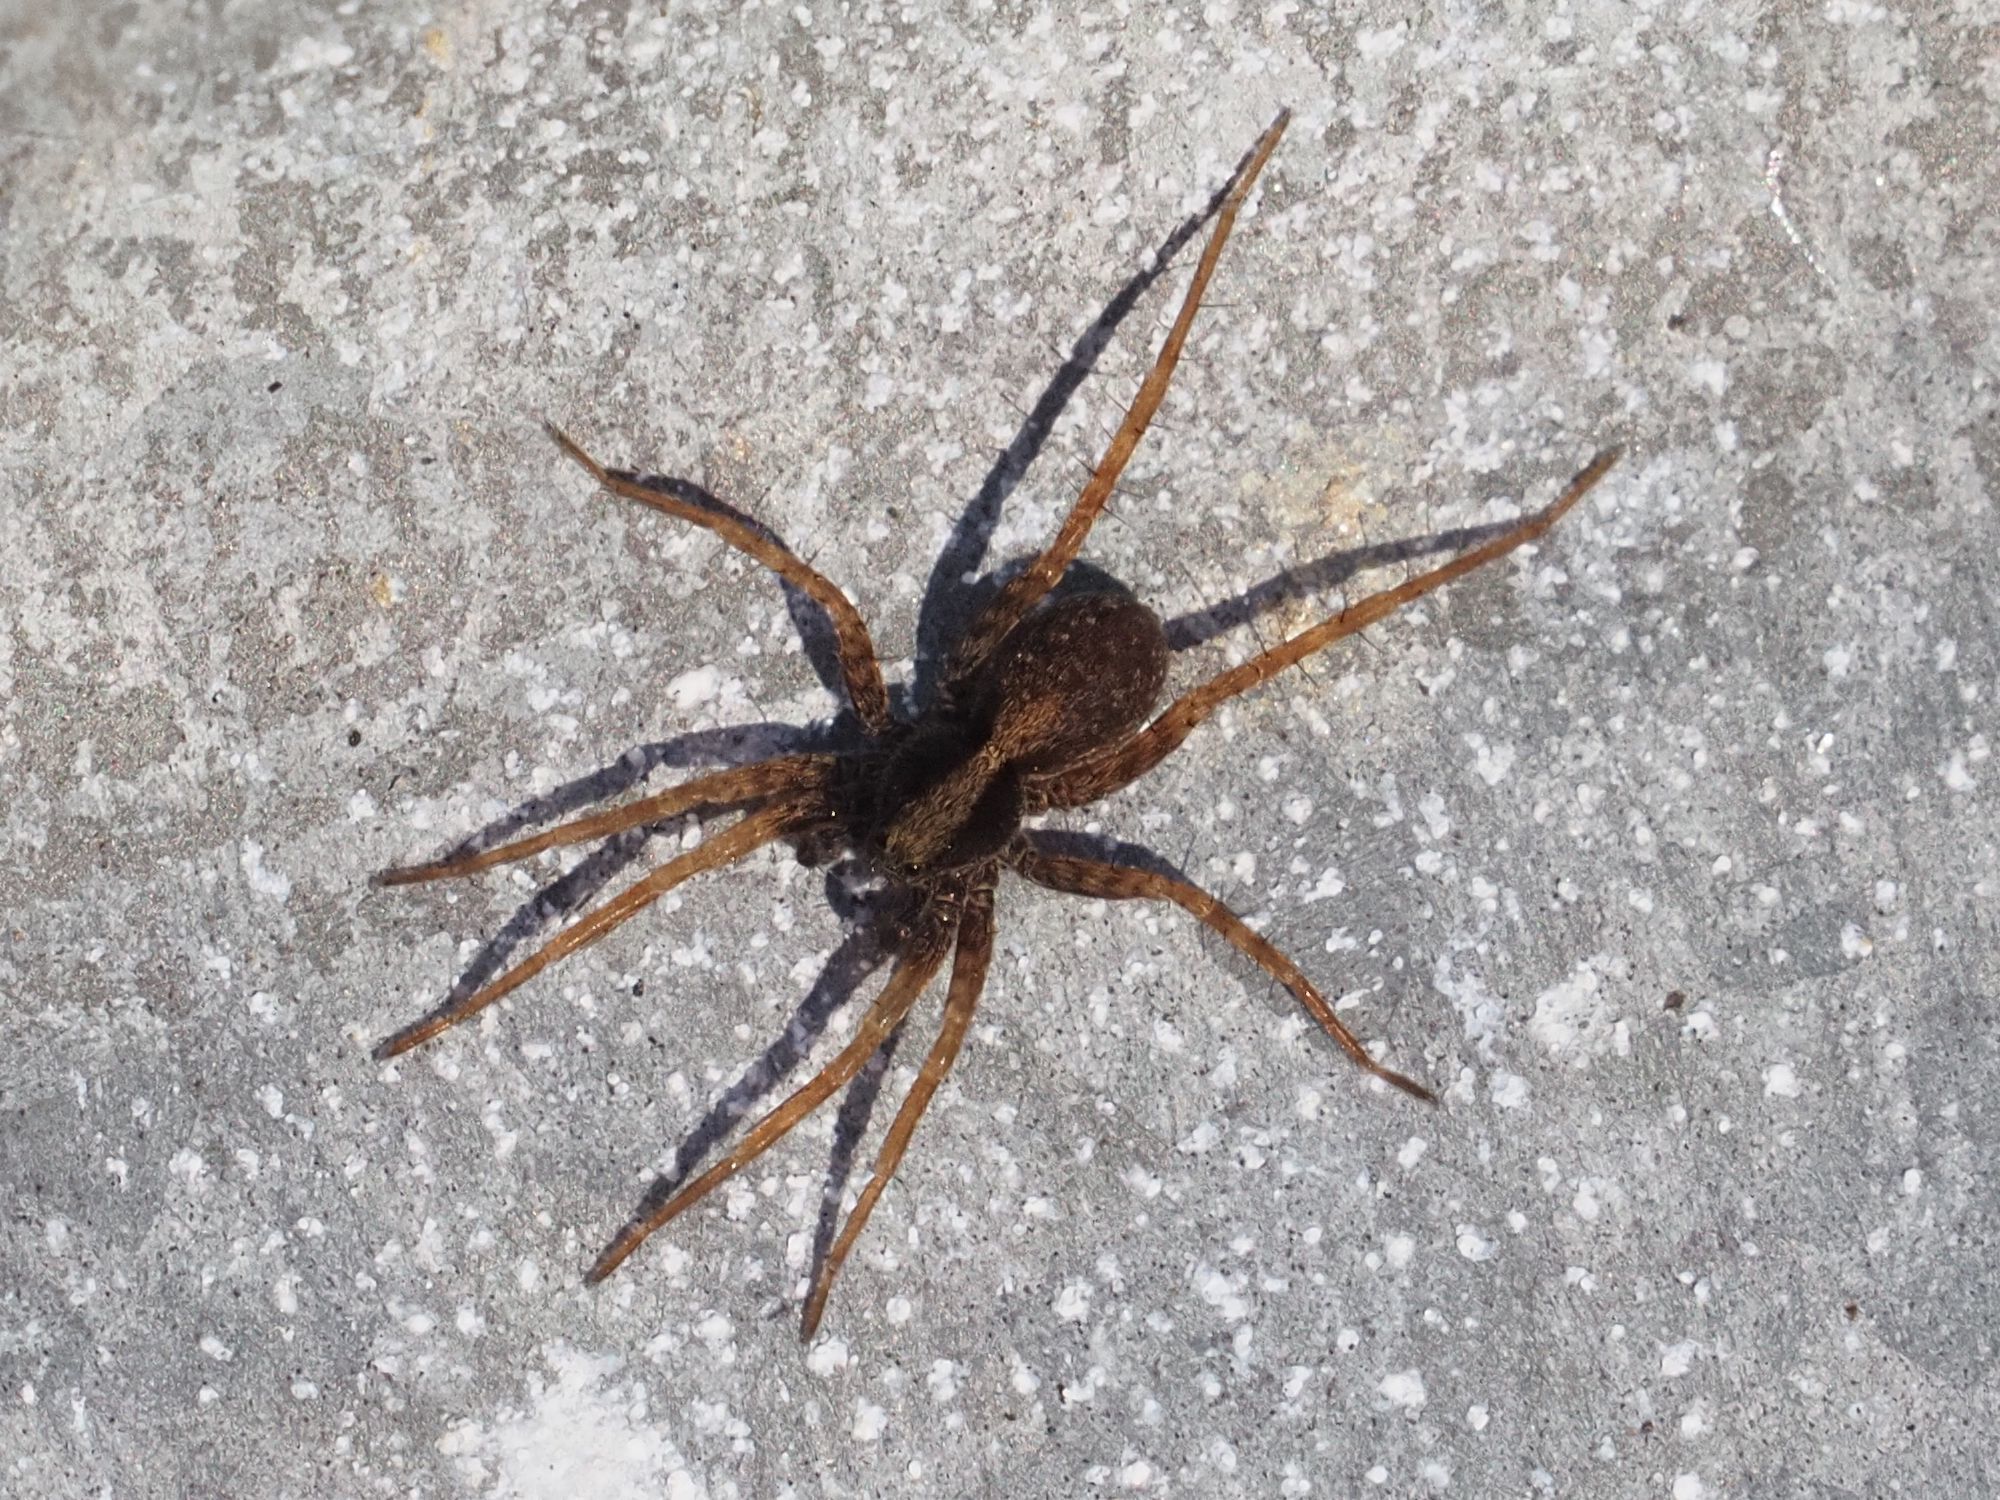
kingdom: Animalia
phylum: Arthropoda
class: Arachnida
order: Araneae
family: Lycosidae
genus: Pardosa
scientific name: Pardosa
